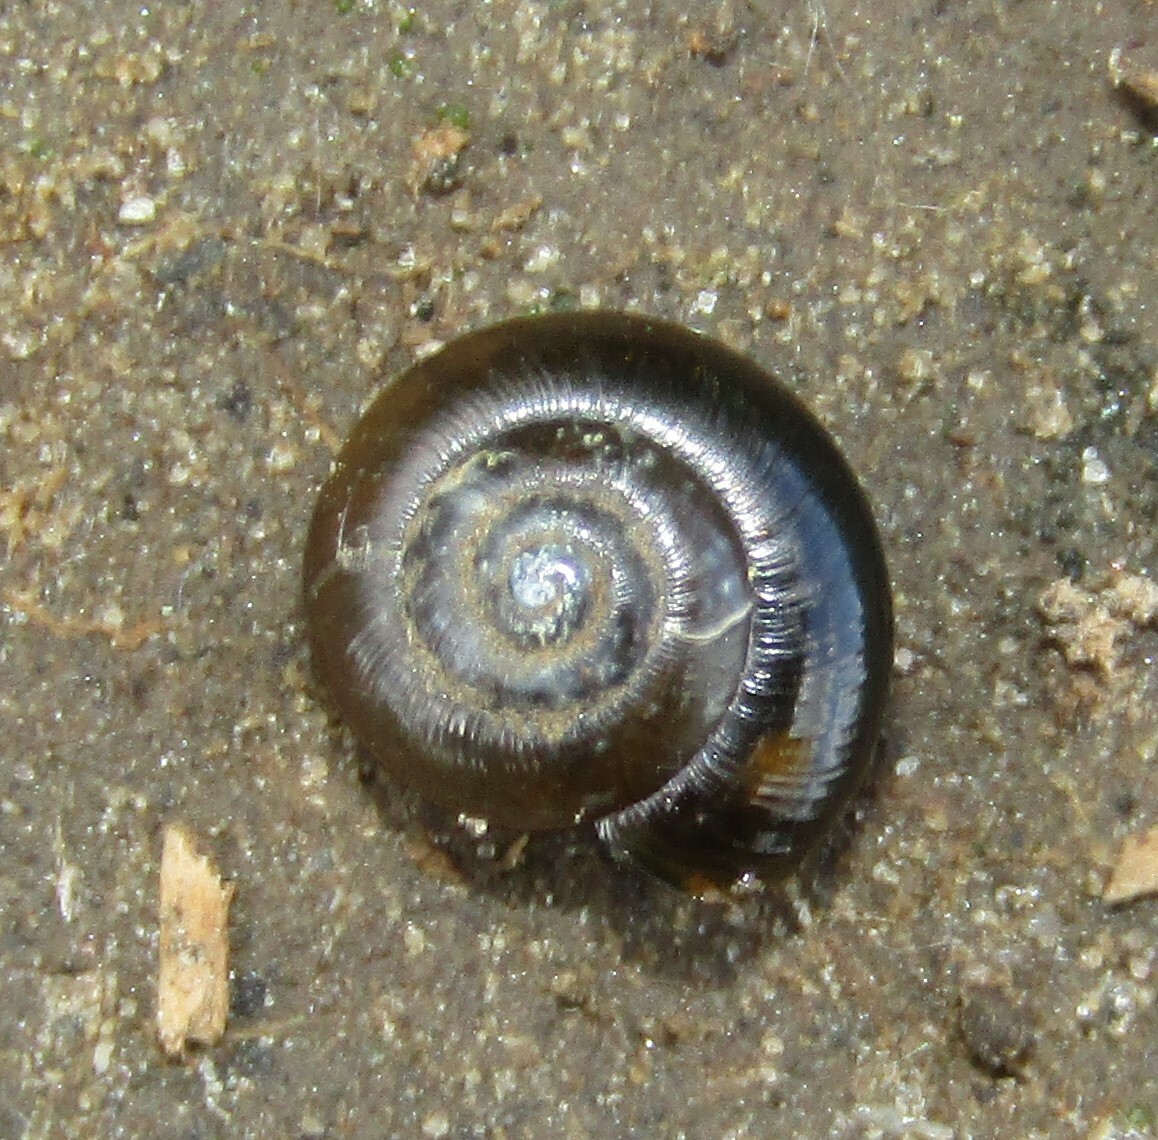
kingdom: Animalia
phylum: Mollusca
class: Gastropoda
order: Stylommatophora
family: Gastrodontidae
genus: Zonitoides
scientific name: Zonitoides nitidus
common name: Shiny glass snail
